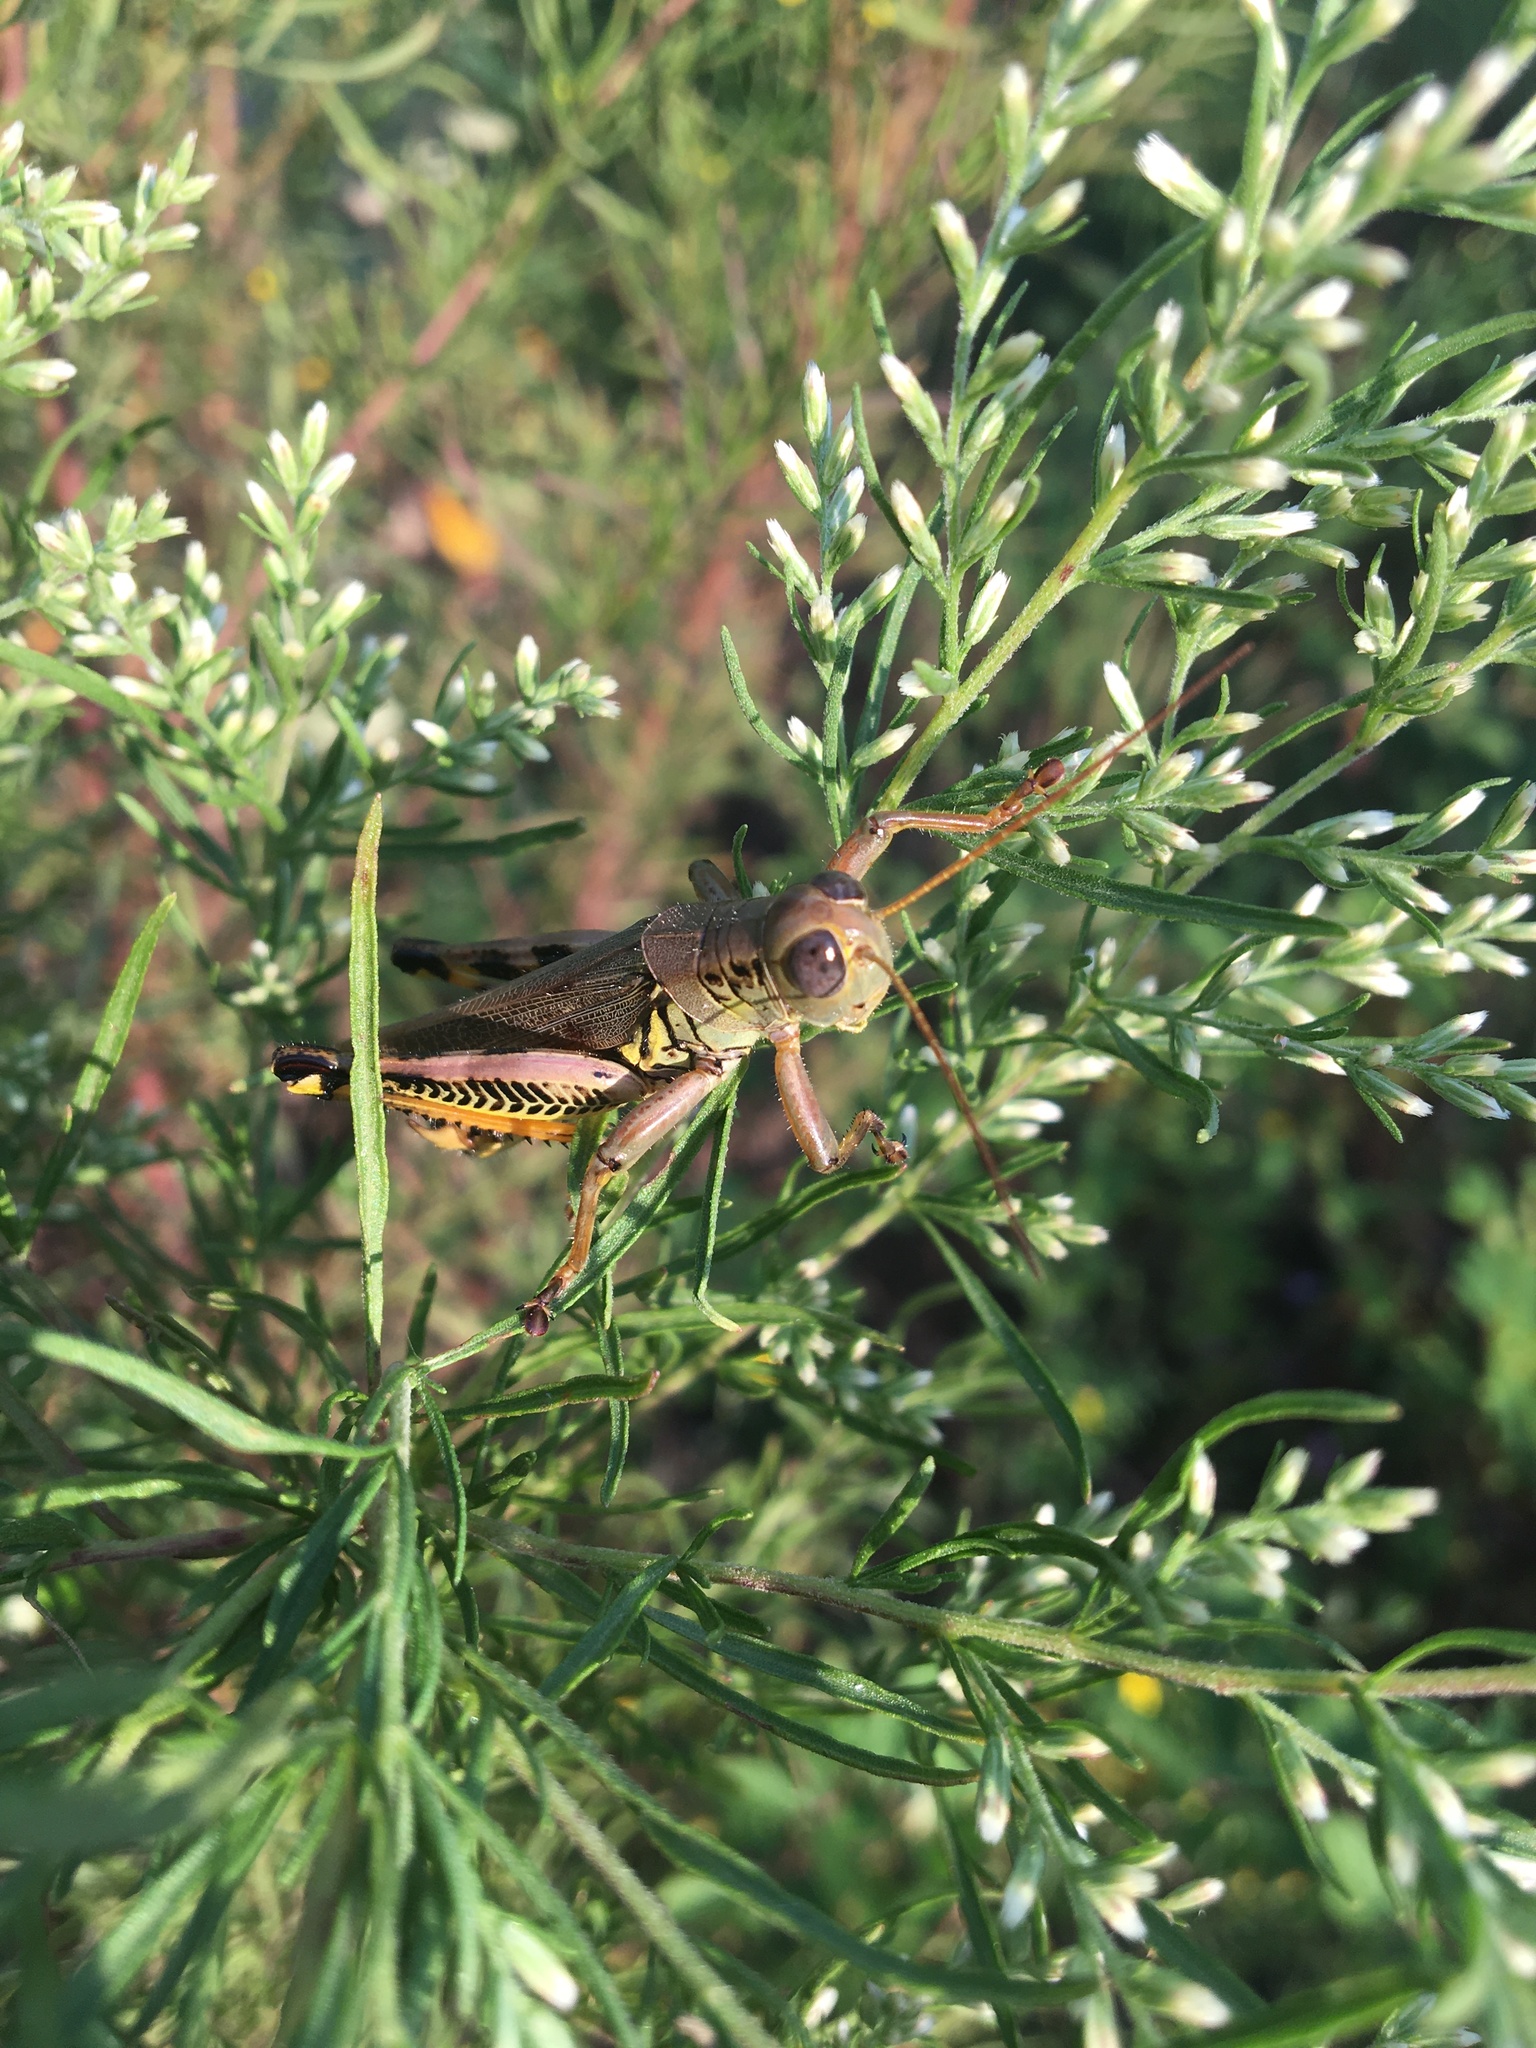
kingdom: Animalia
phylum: Arthropoda
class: Insecta
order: Orthoptera
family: Acrididae
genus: Melanoplus
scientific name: Melanoplus differentialis
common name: Differential grasshopper
